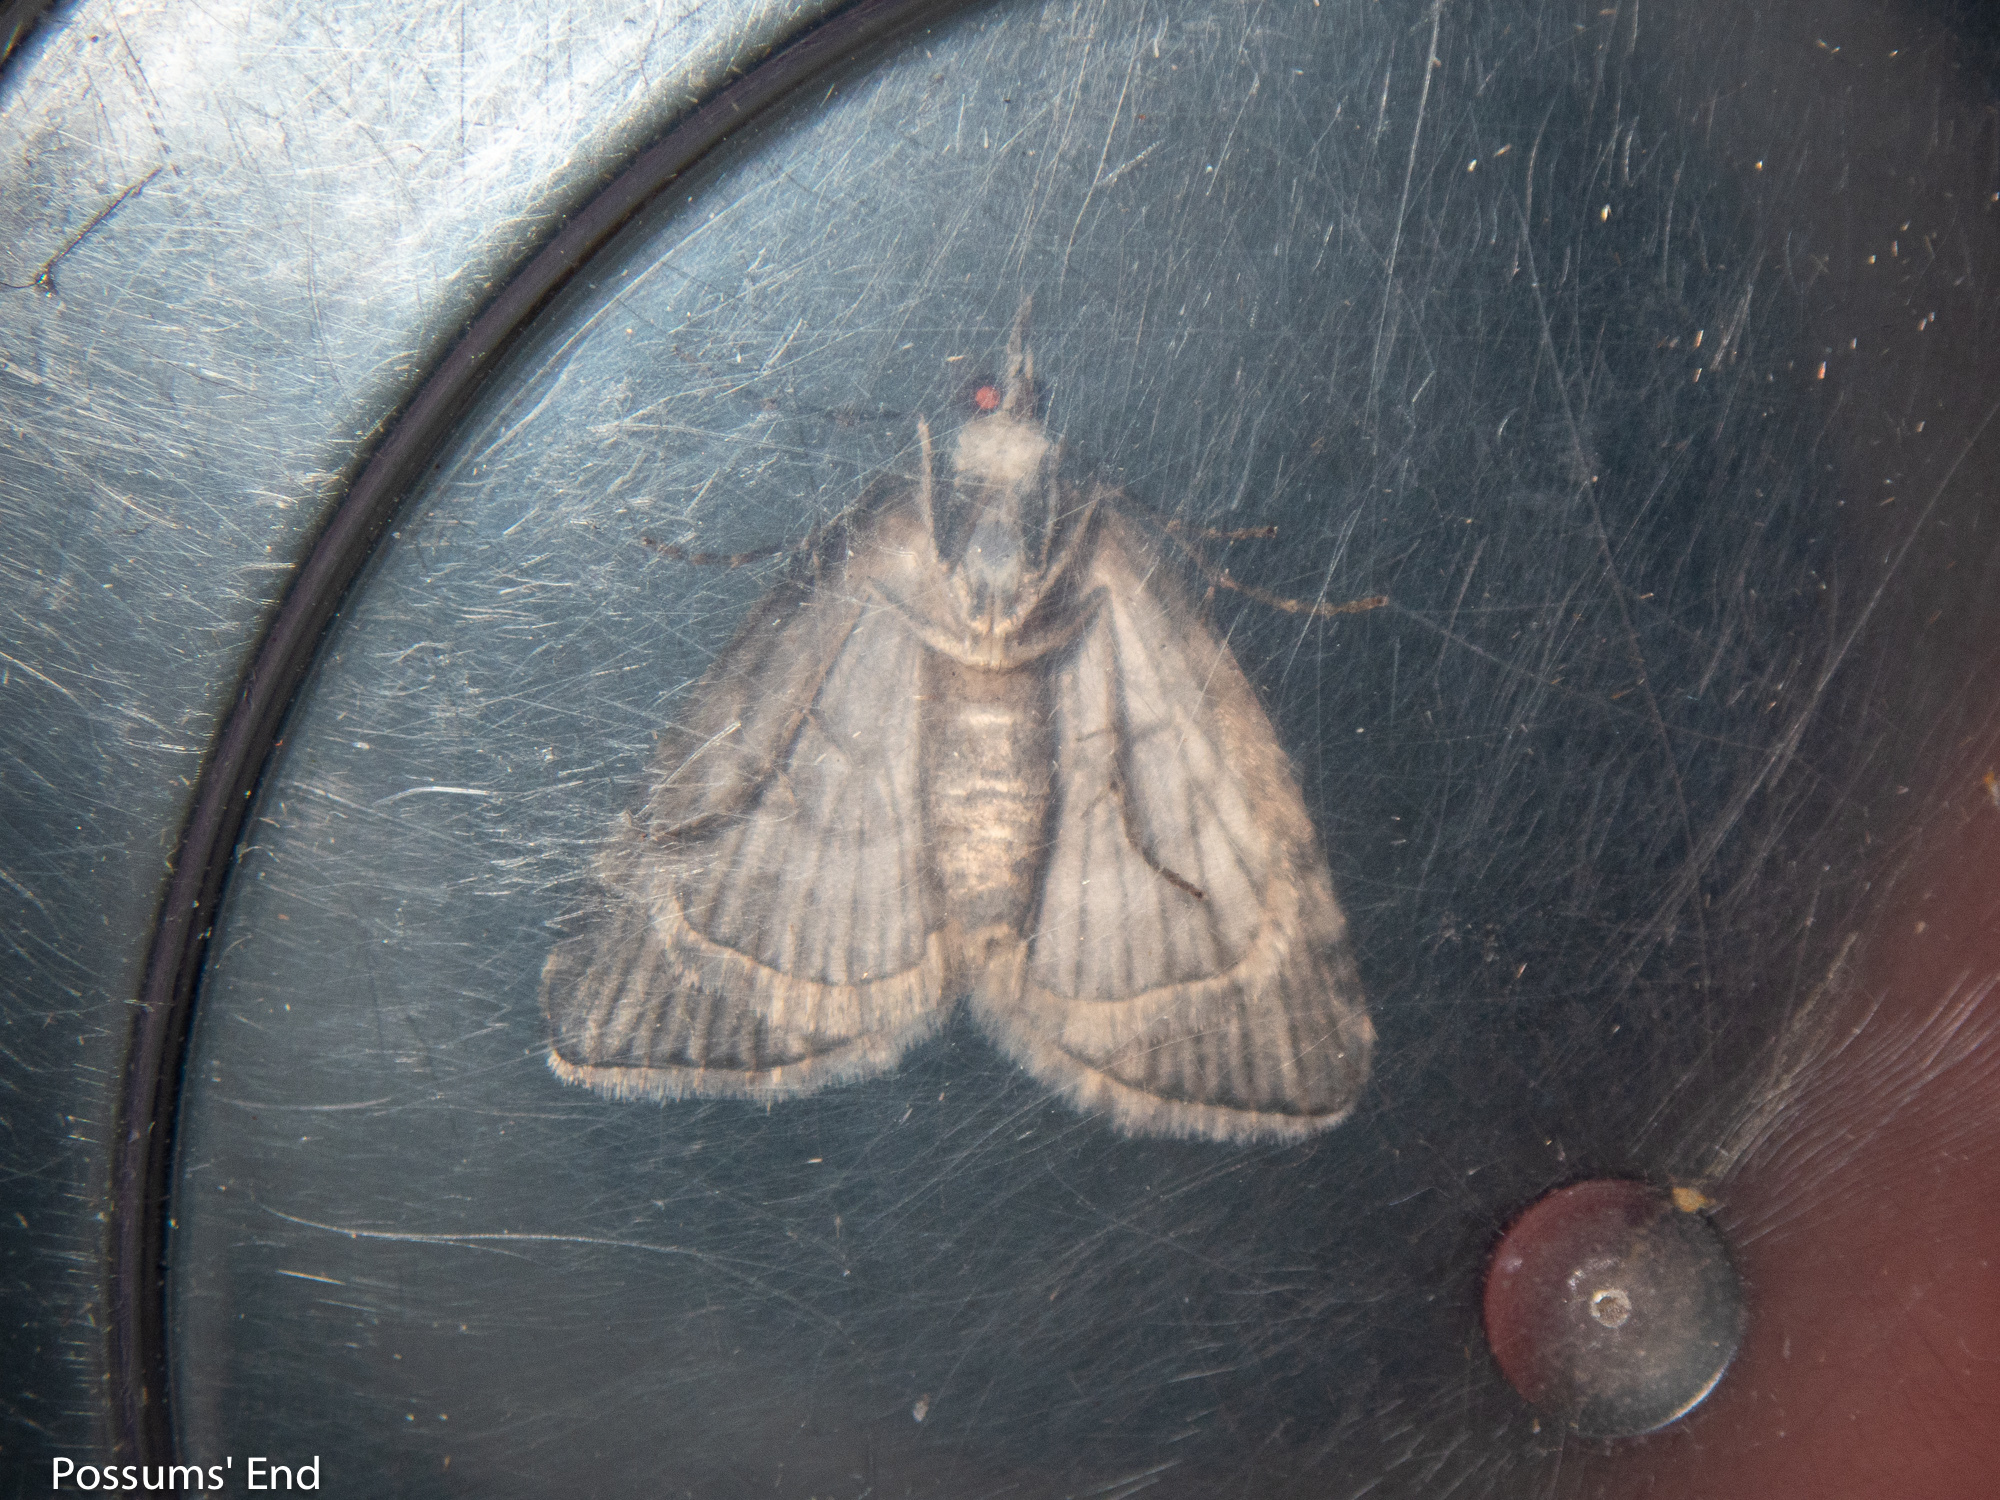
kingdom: Animalia
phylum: Arthropoda
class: Insecta
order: Lepidoptera
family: Geometridae
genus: Microdes
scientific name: Microdes quadristrigata
